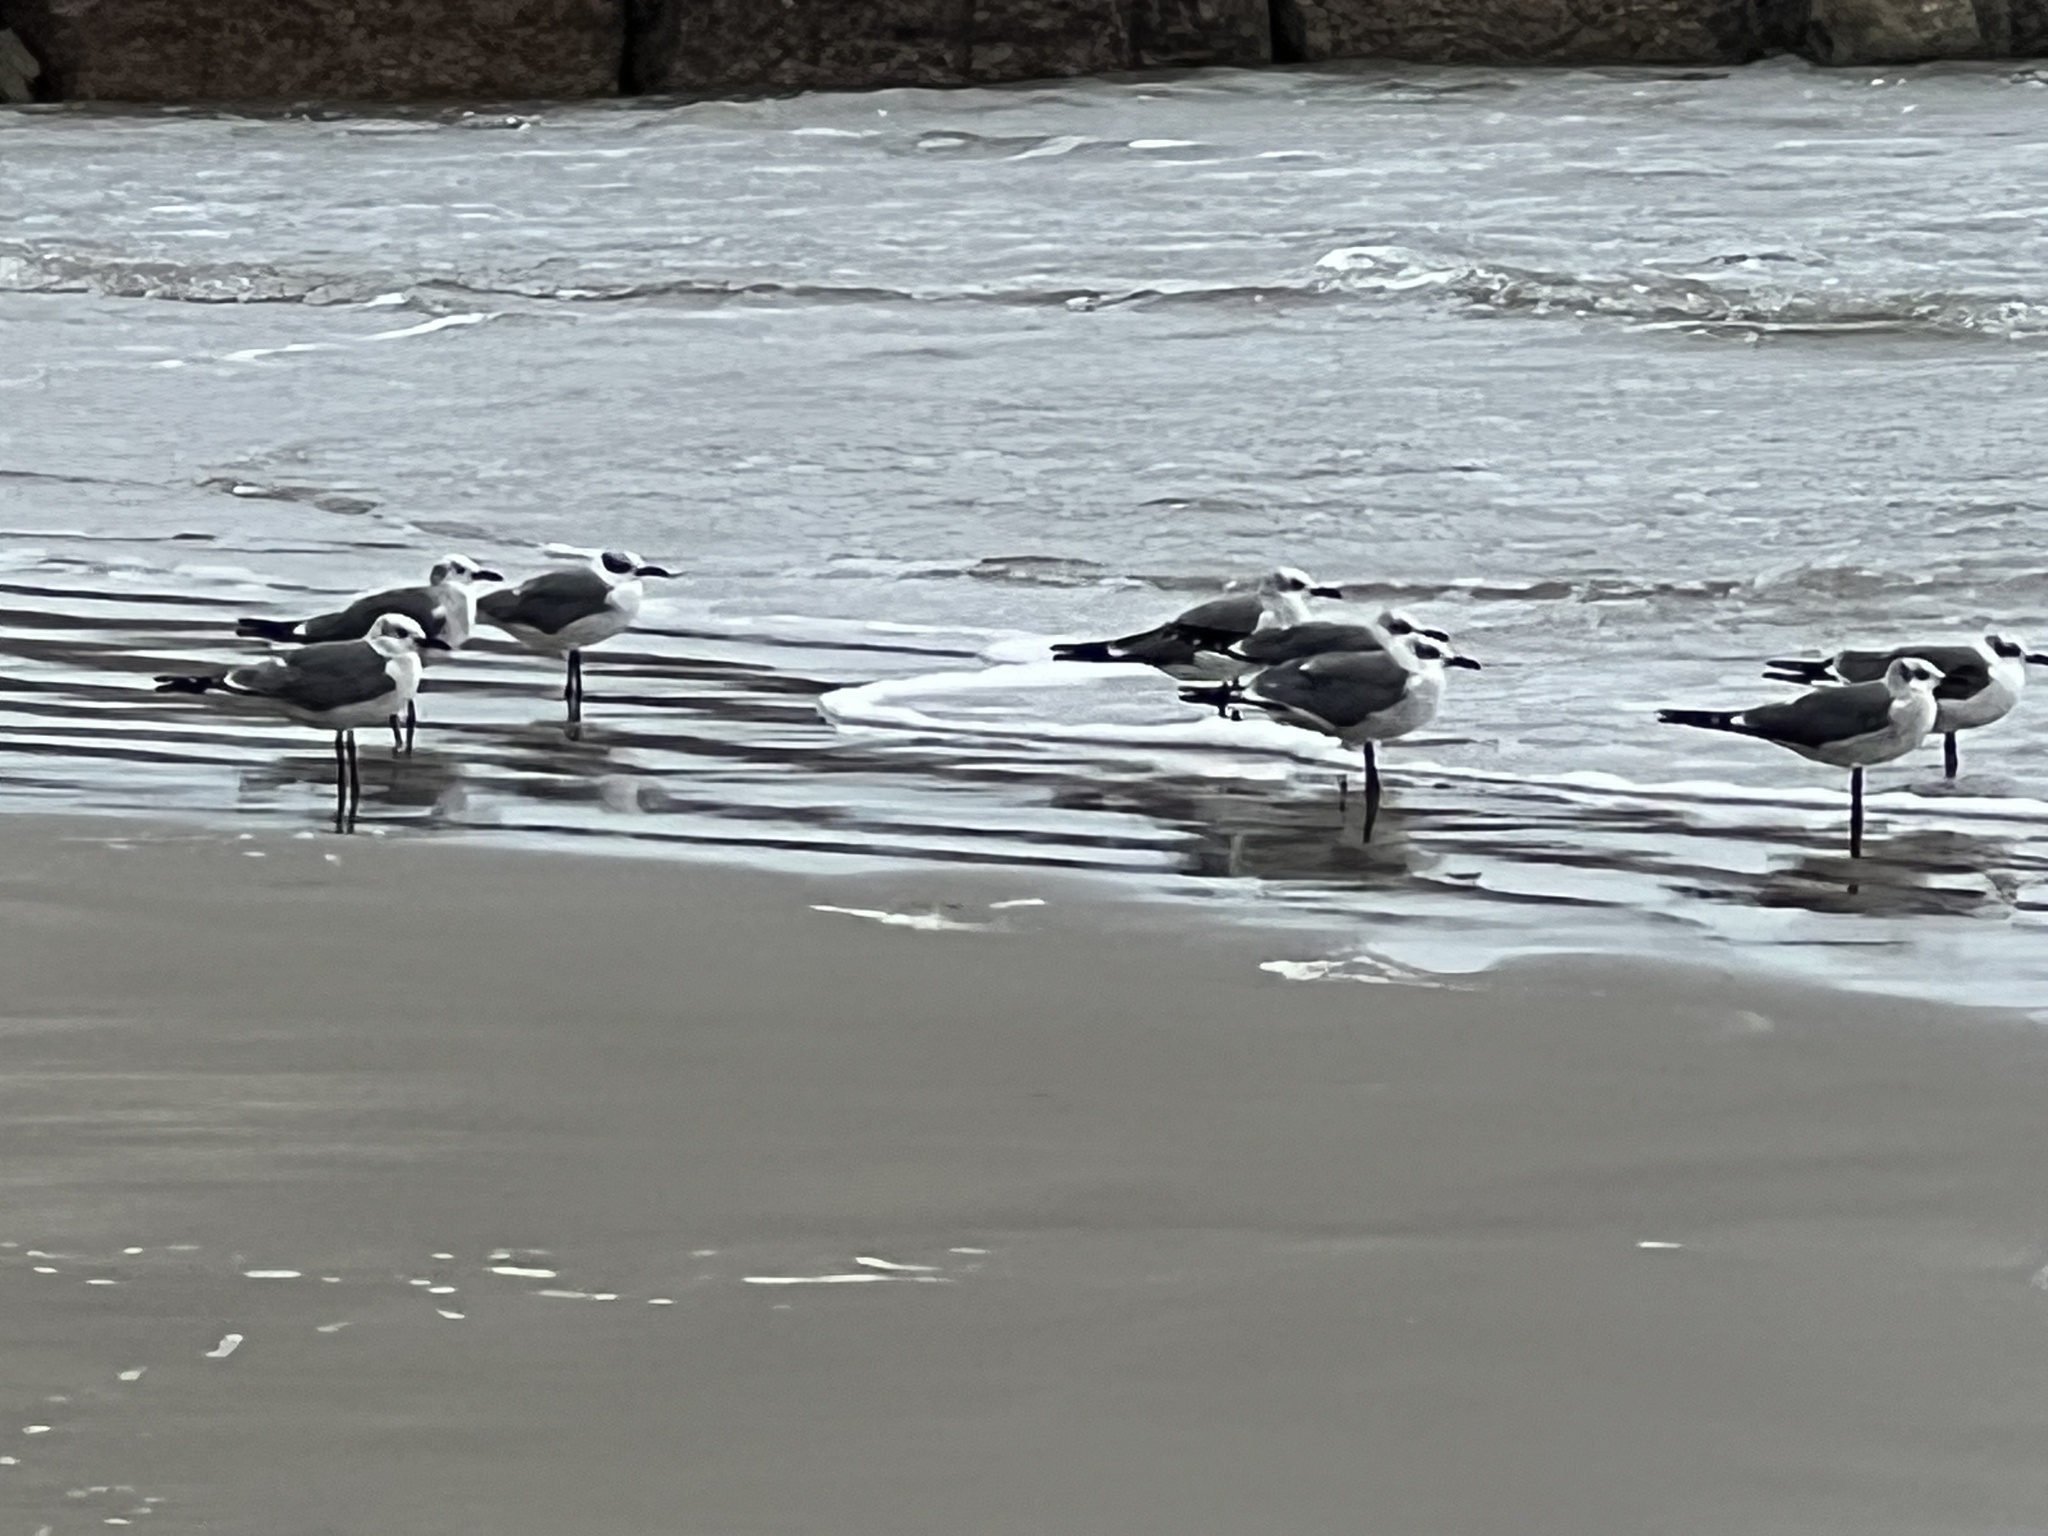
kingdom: Animalia
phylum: Chordata
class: Aves
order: Charadriiformes
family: Laridae
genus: Leucophaeus
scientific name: Leucophaeus atricilla
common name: Laughing gull
